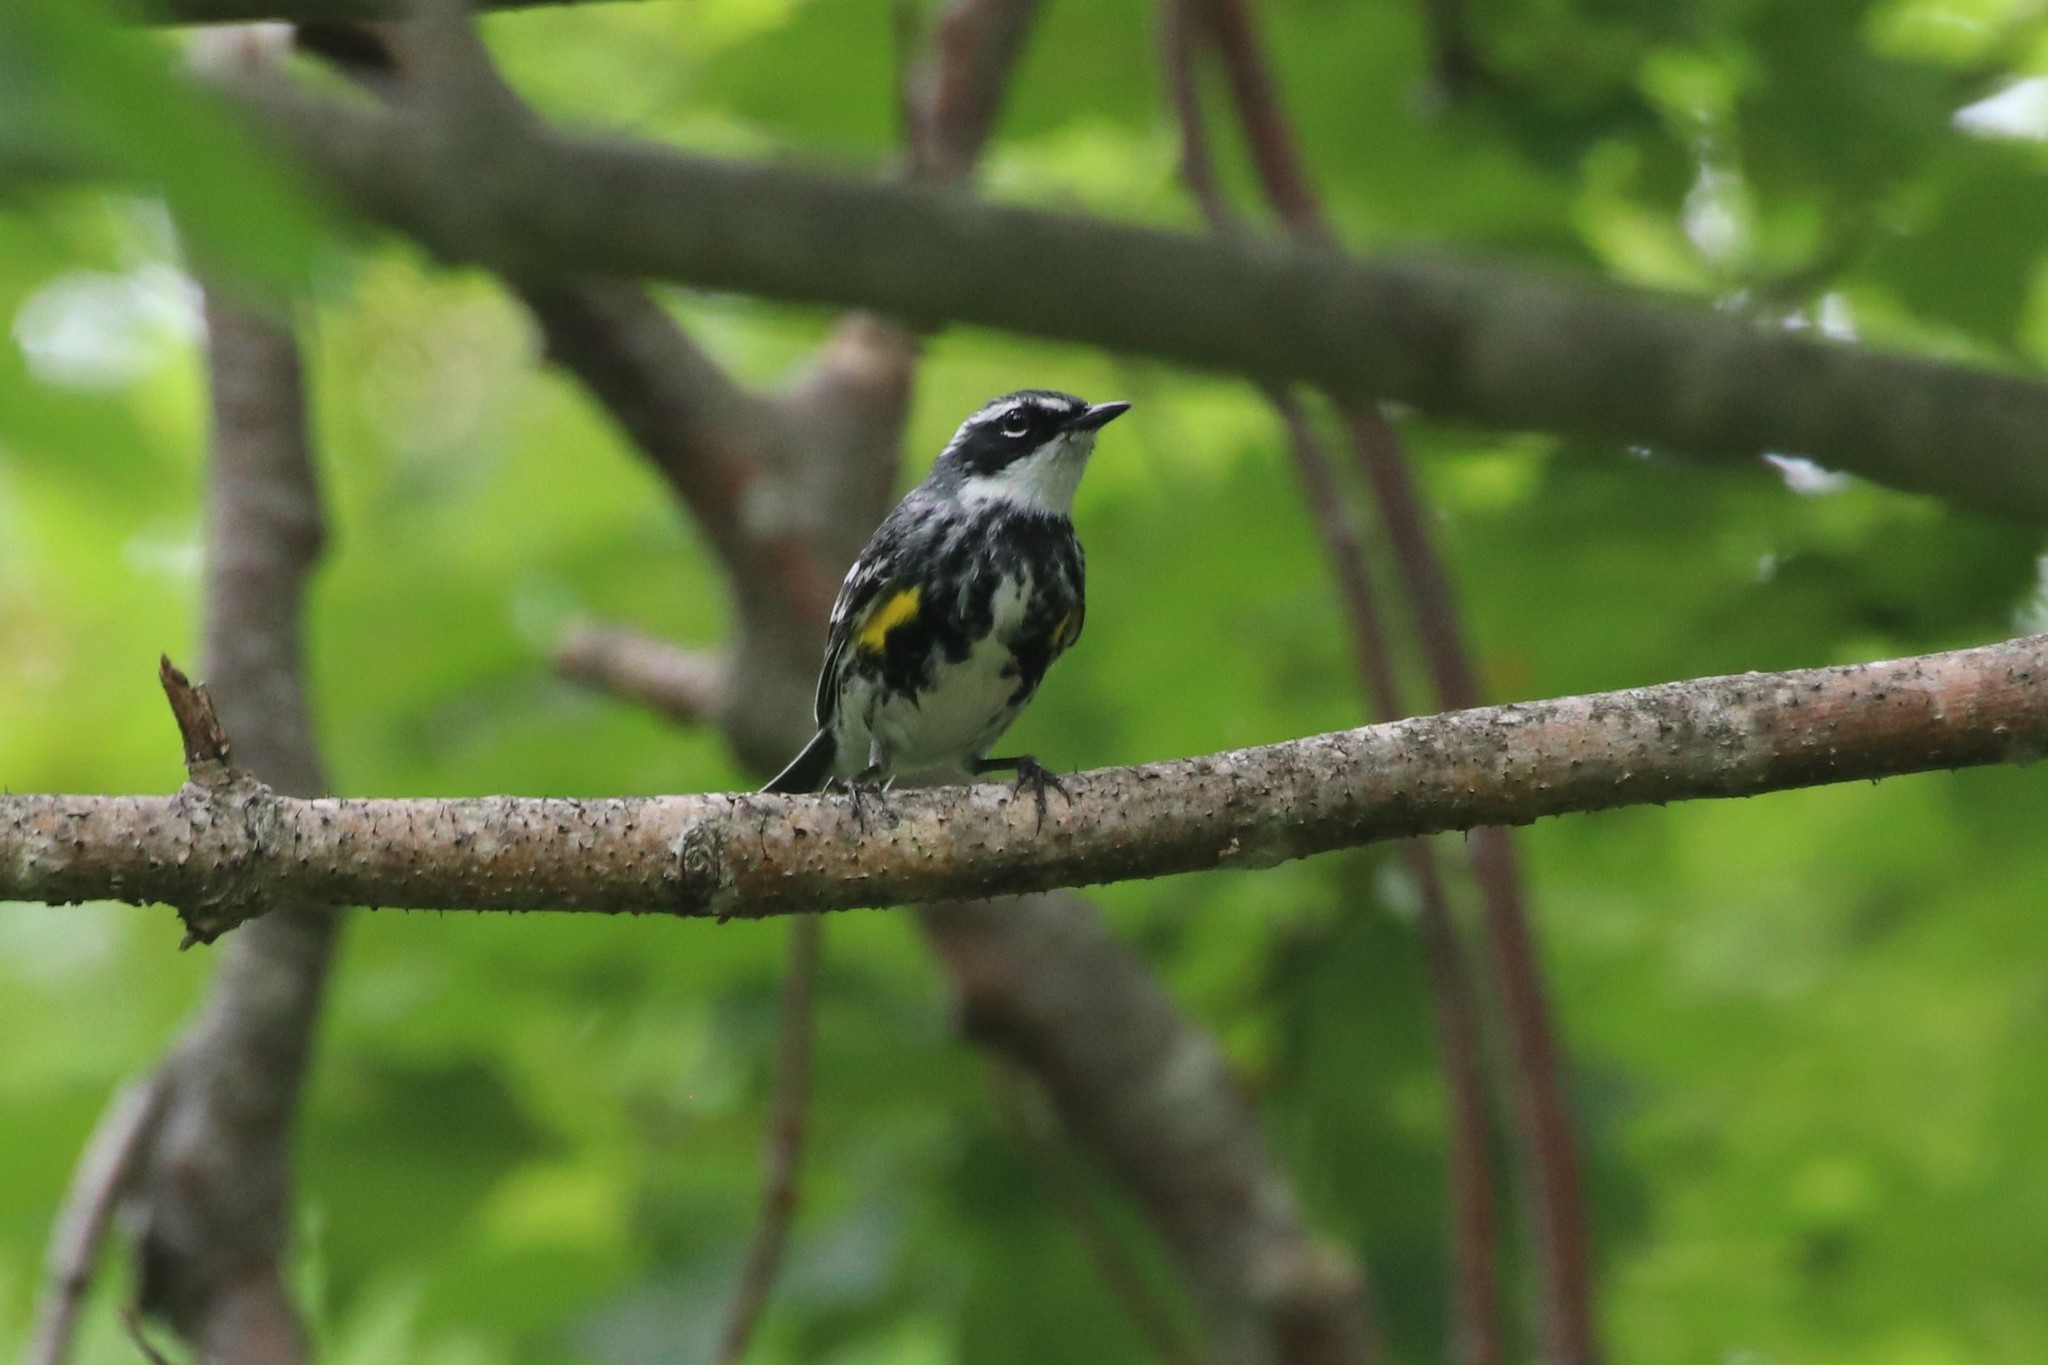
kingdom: Animalia
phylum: Chordata
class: Aves
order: Passeriformes
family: Parulidae
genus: Setophaga
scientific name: Setophaga coronata
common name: Myrtle warbler
